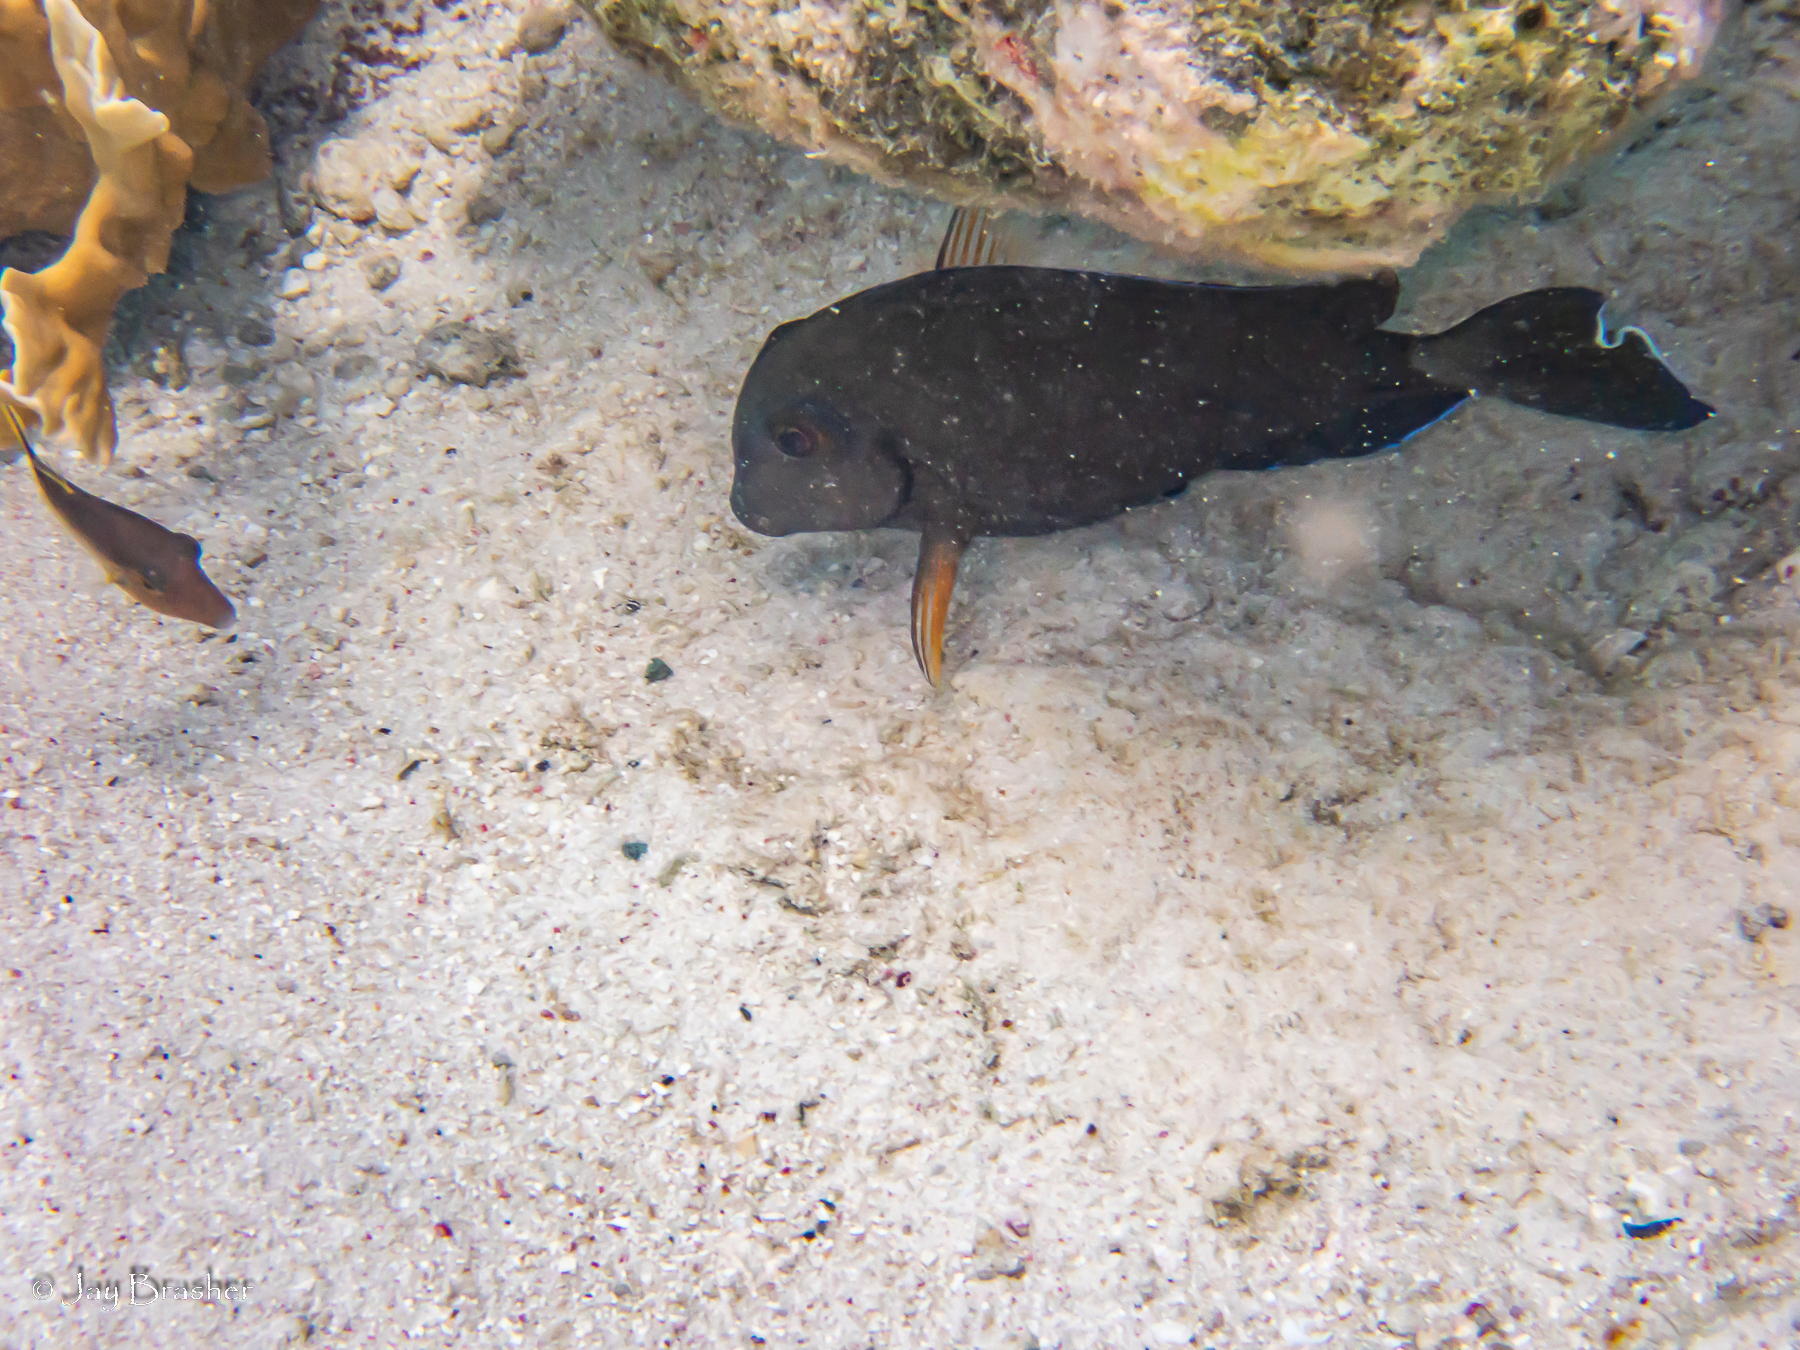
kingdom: Animalia
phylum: Chordata
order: Perciformes
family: Acanthuridae
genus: Acanthurus
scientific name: Acanthurus bahianus
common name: Ocean surgeon
